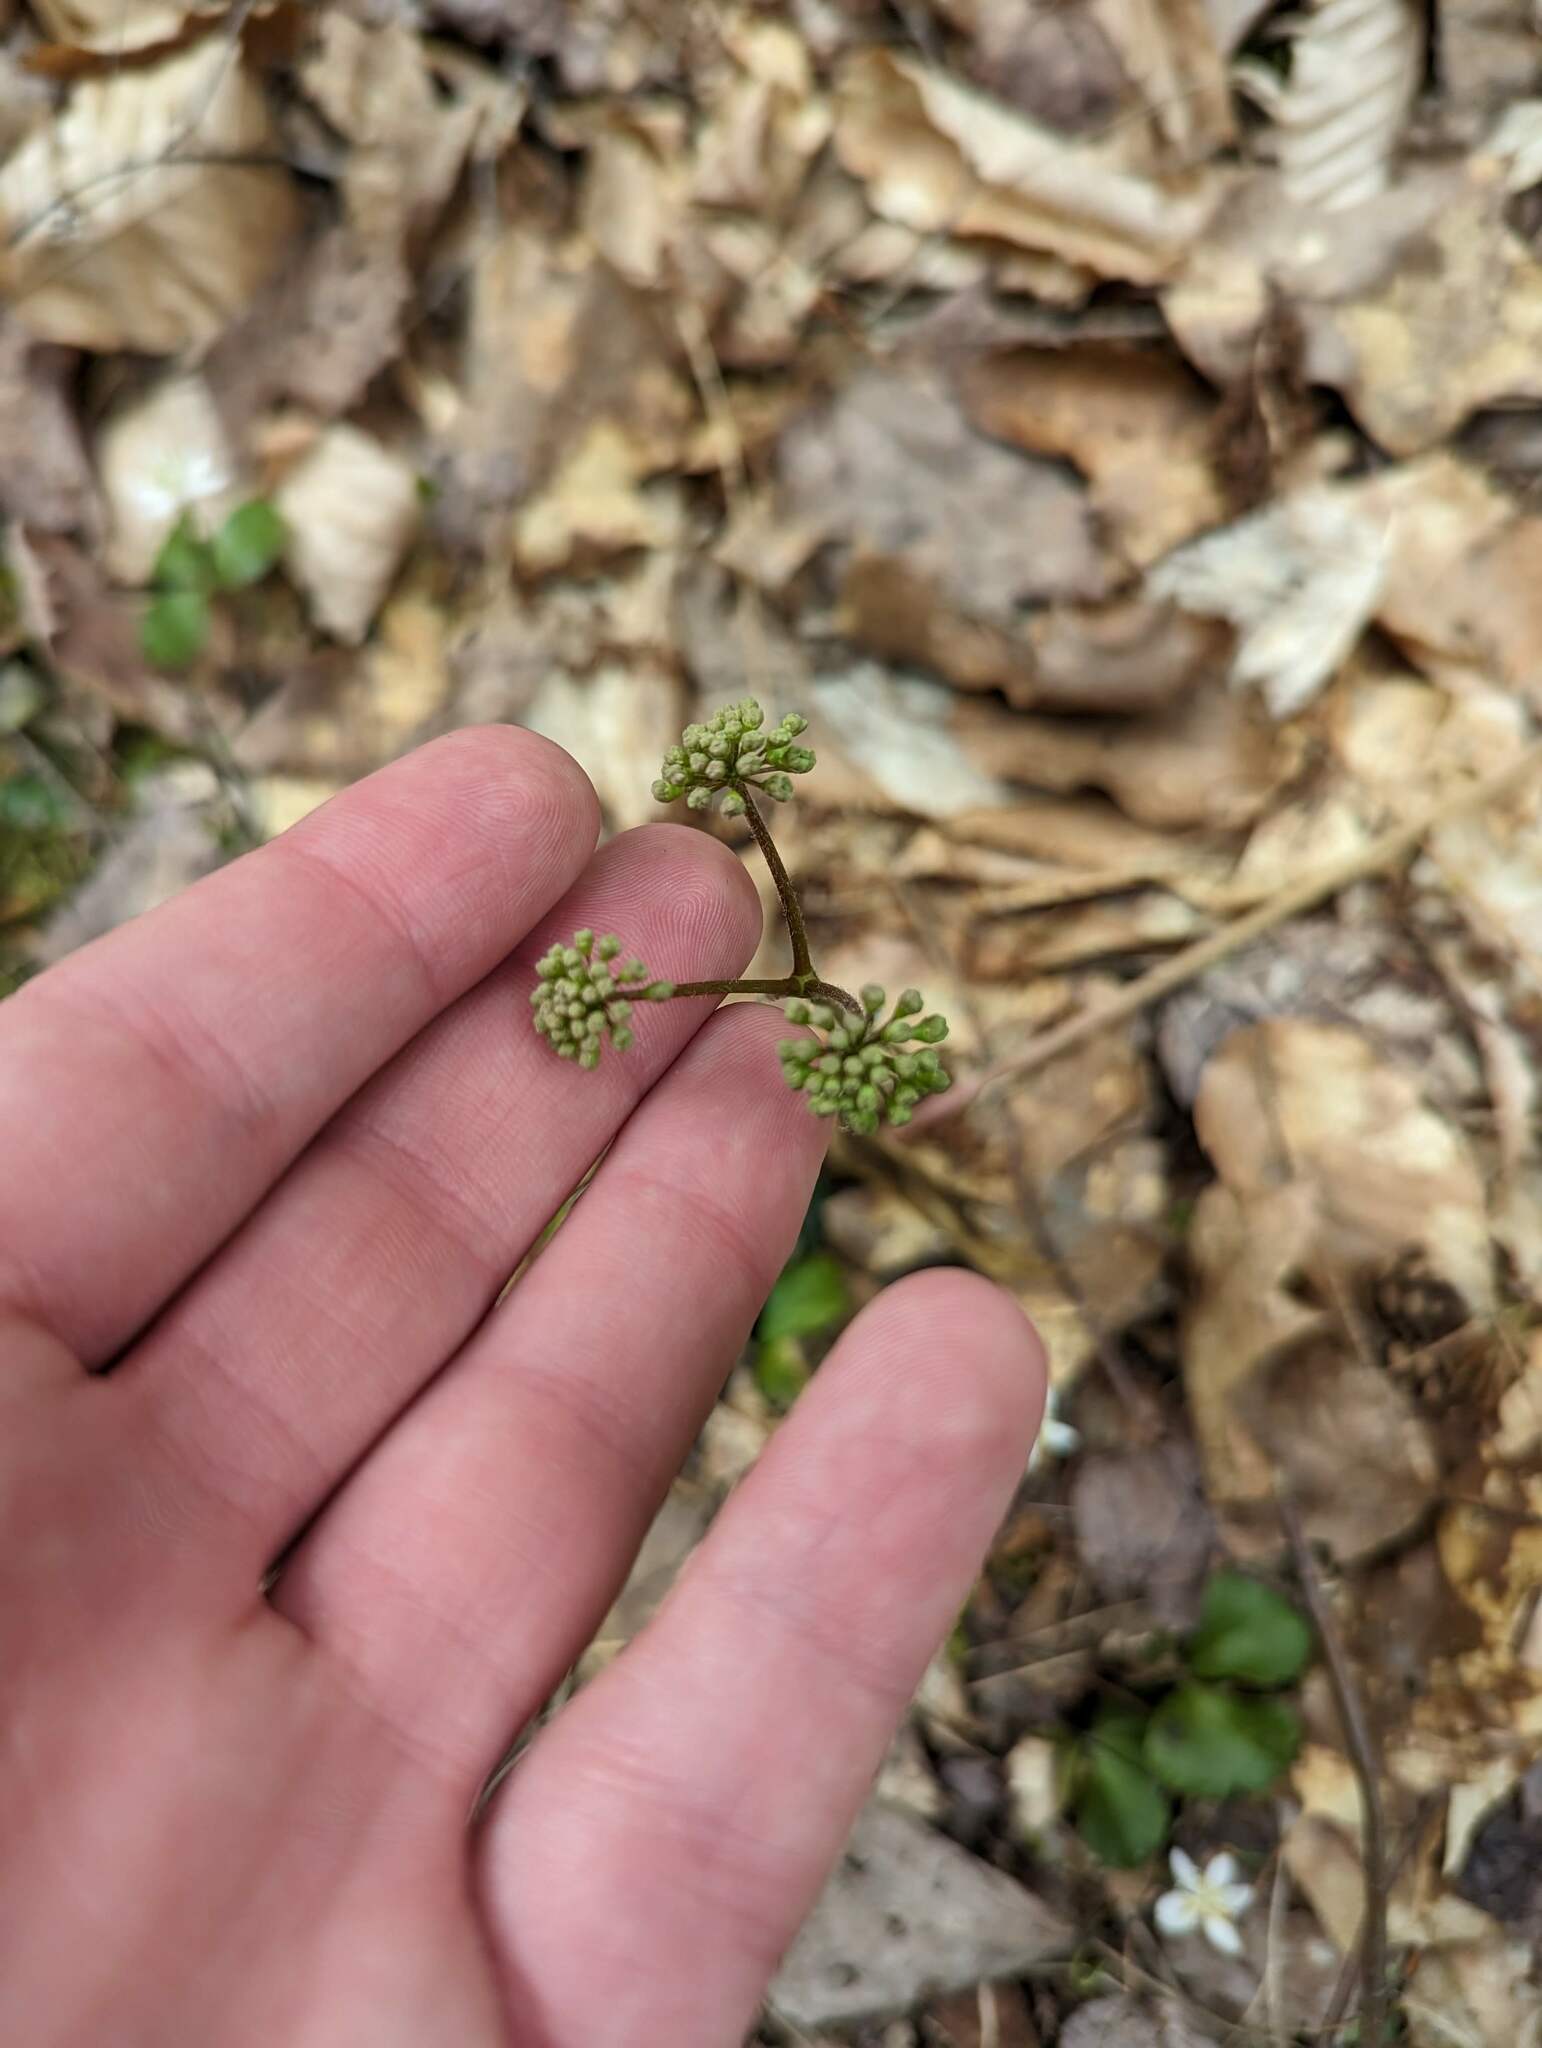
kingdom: Plantae
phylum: Tracheophyta
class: Magnoliopsida
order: Apiales
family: Araliaceae
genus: Aralia
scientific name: Aralia nudicaulis
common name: Wild sarsaparilla
